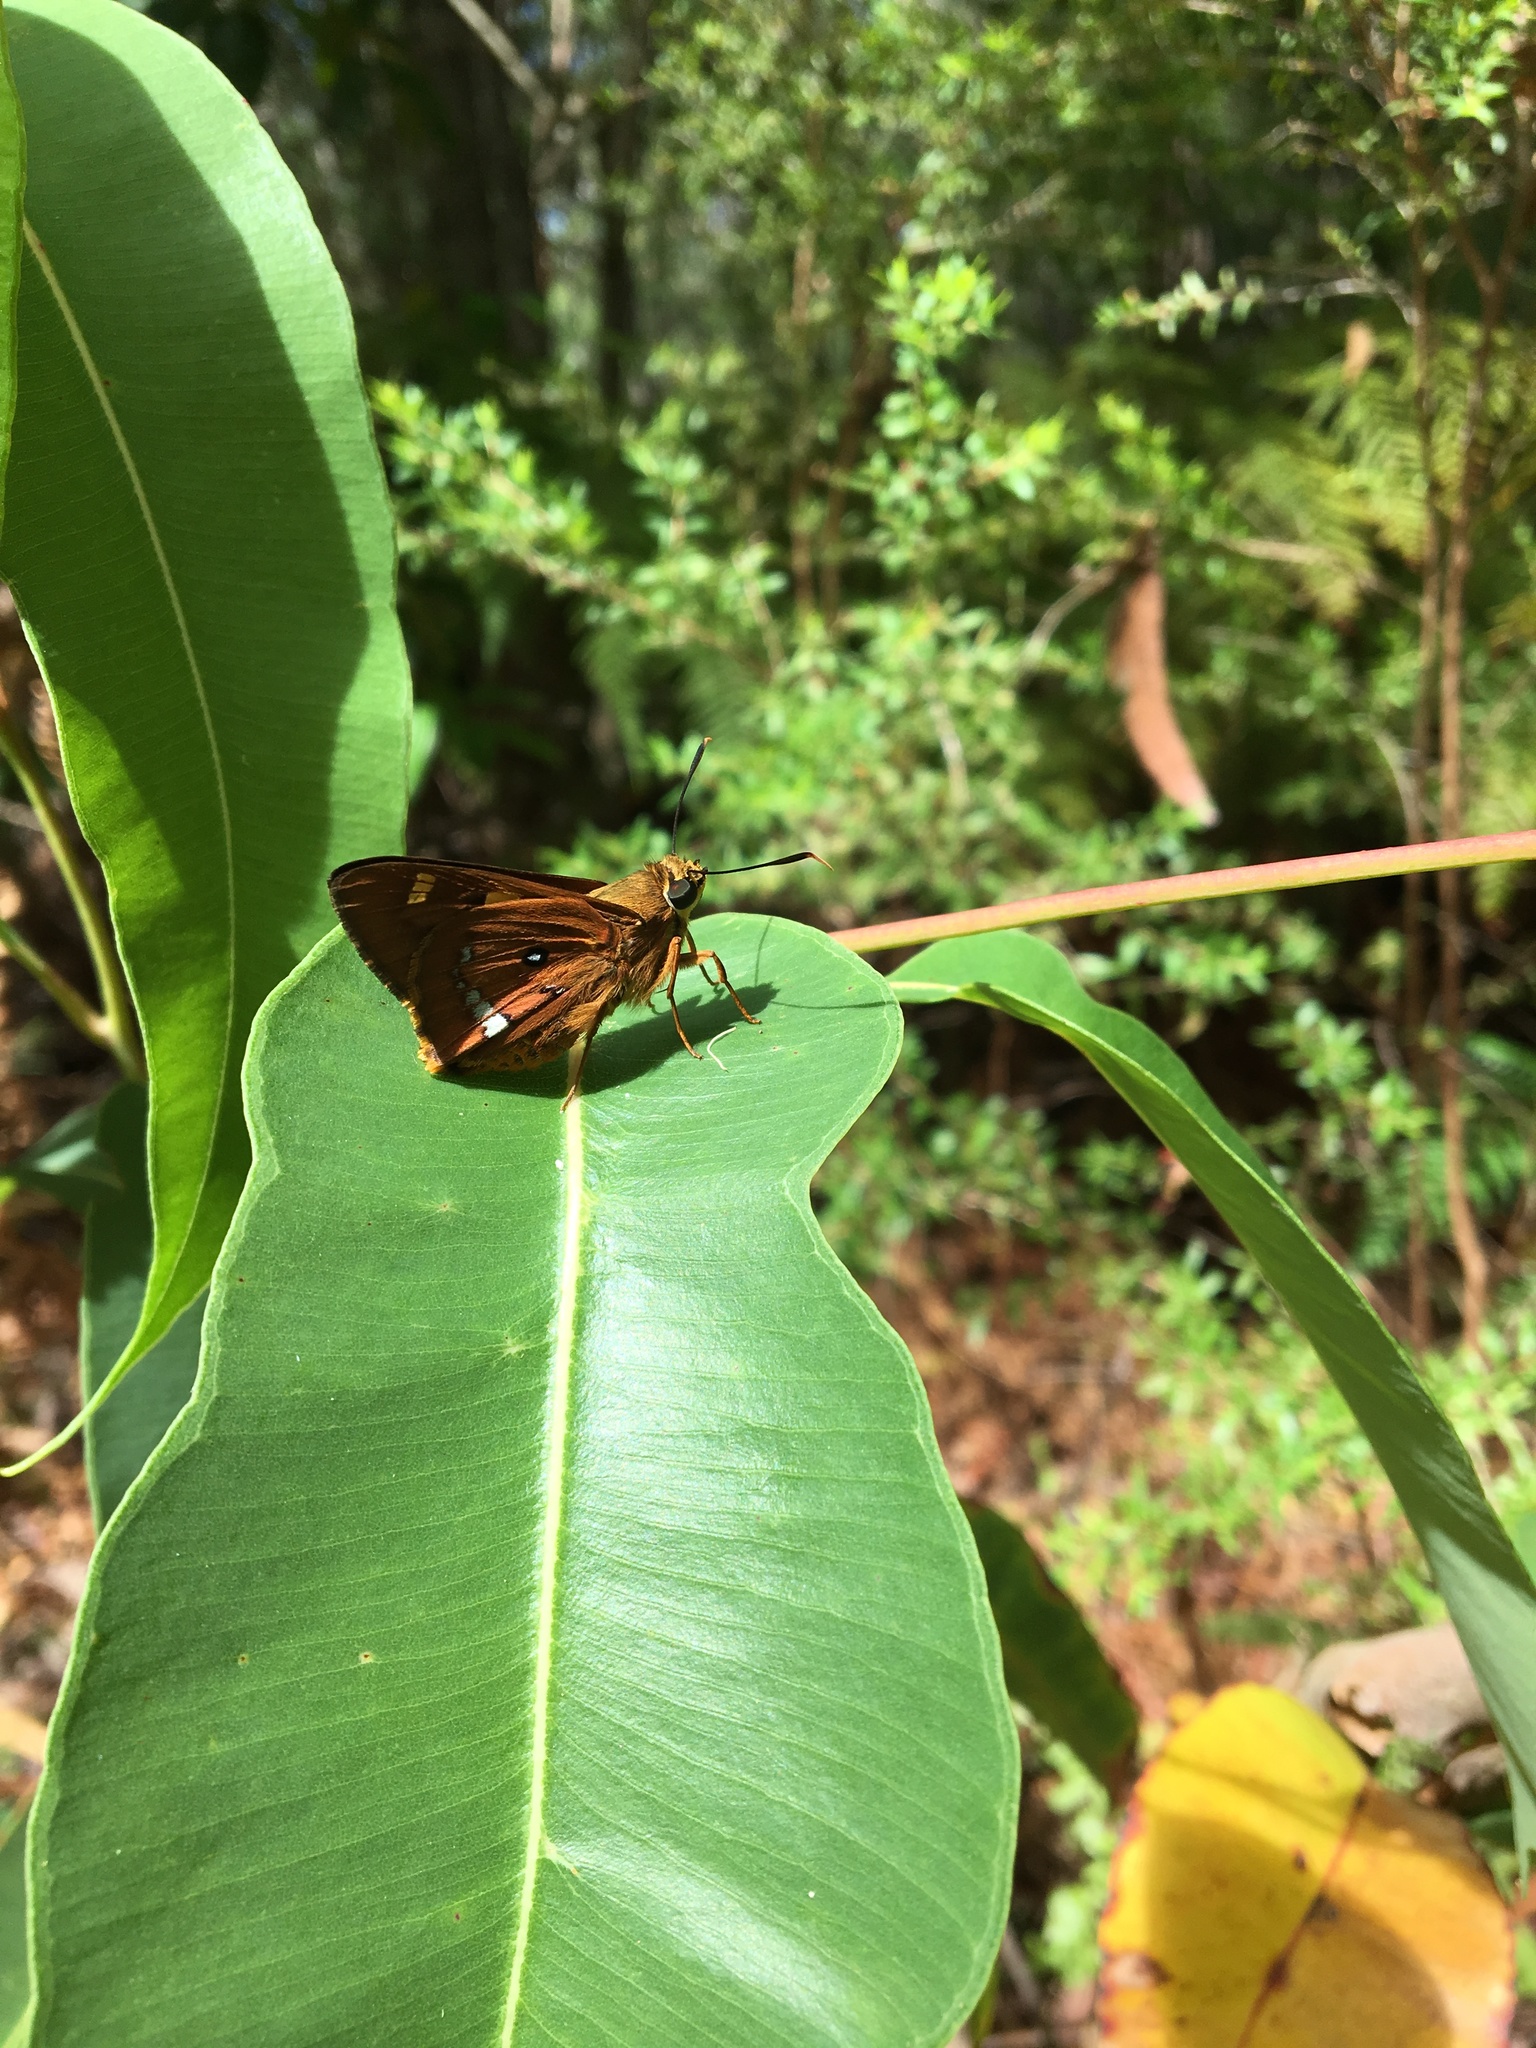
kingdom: Animalia
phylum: Arthropoda
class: Insecta
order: Lepidoptera
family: Hesperiidae
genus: Trapezites
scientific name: Trapezites symmomus
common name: Splendid ochre
